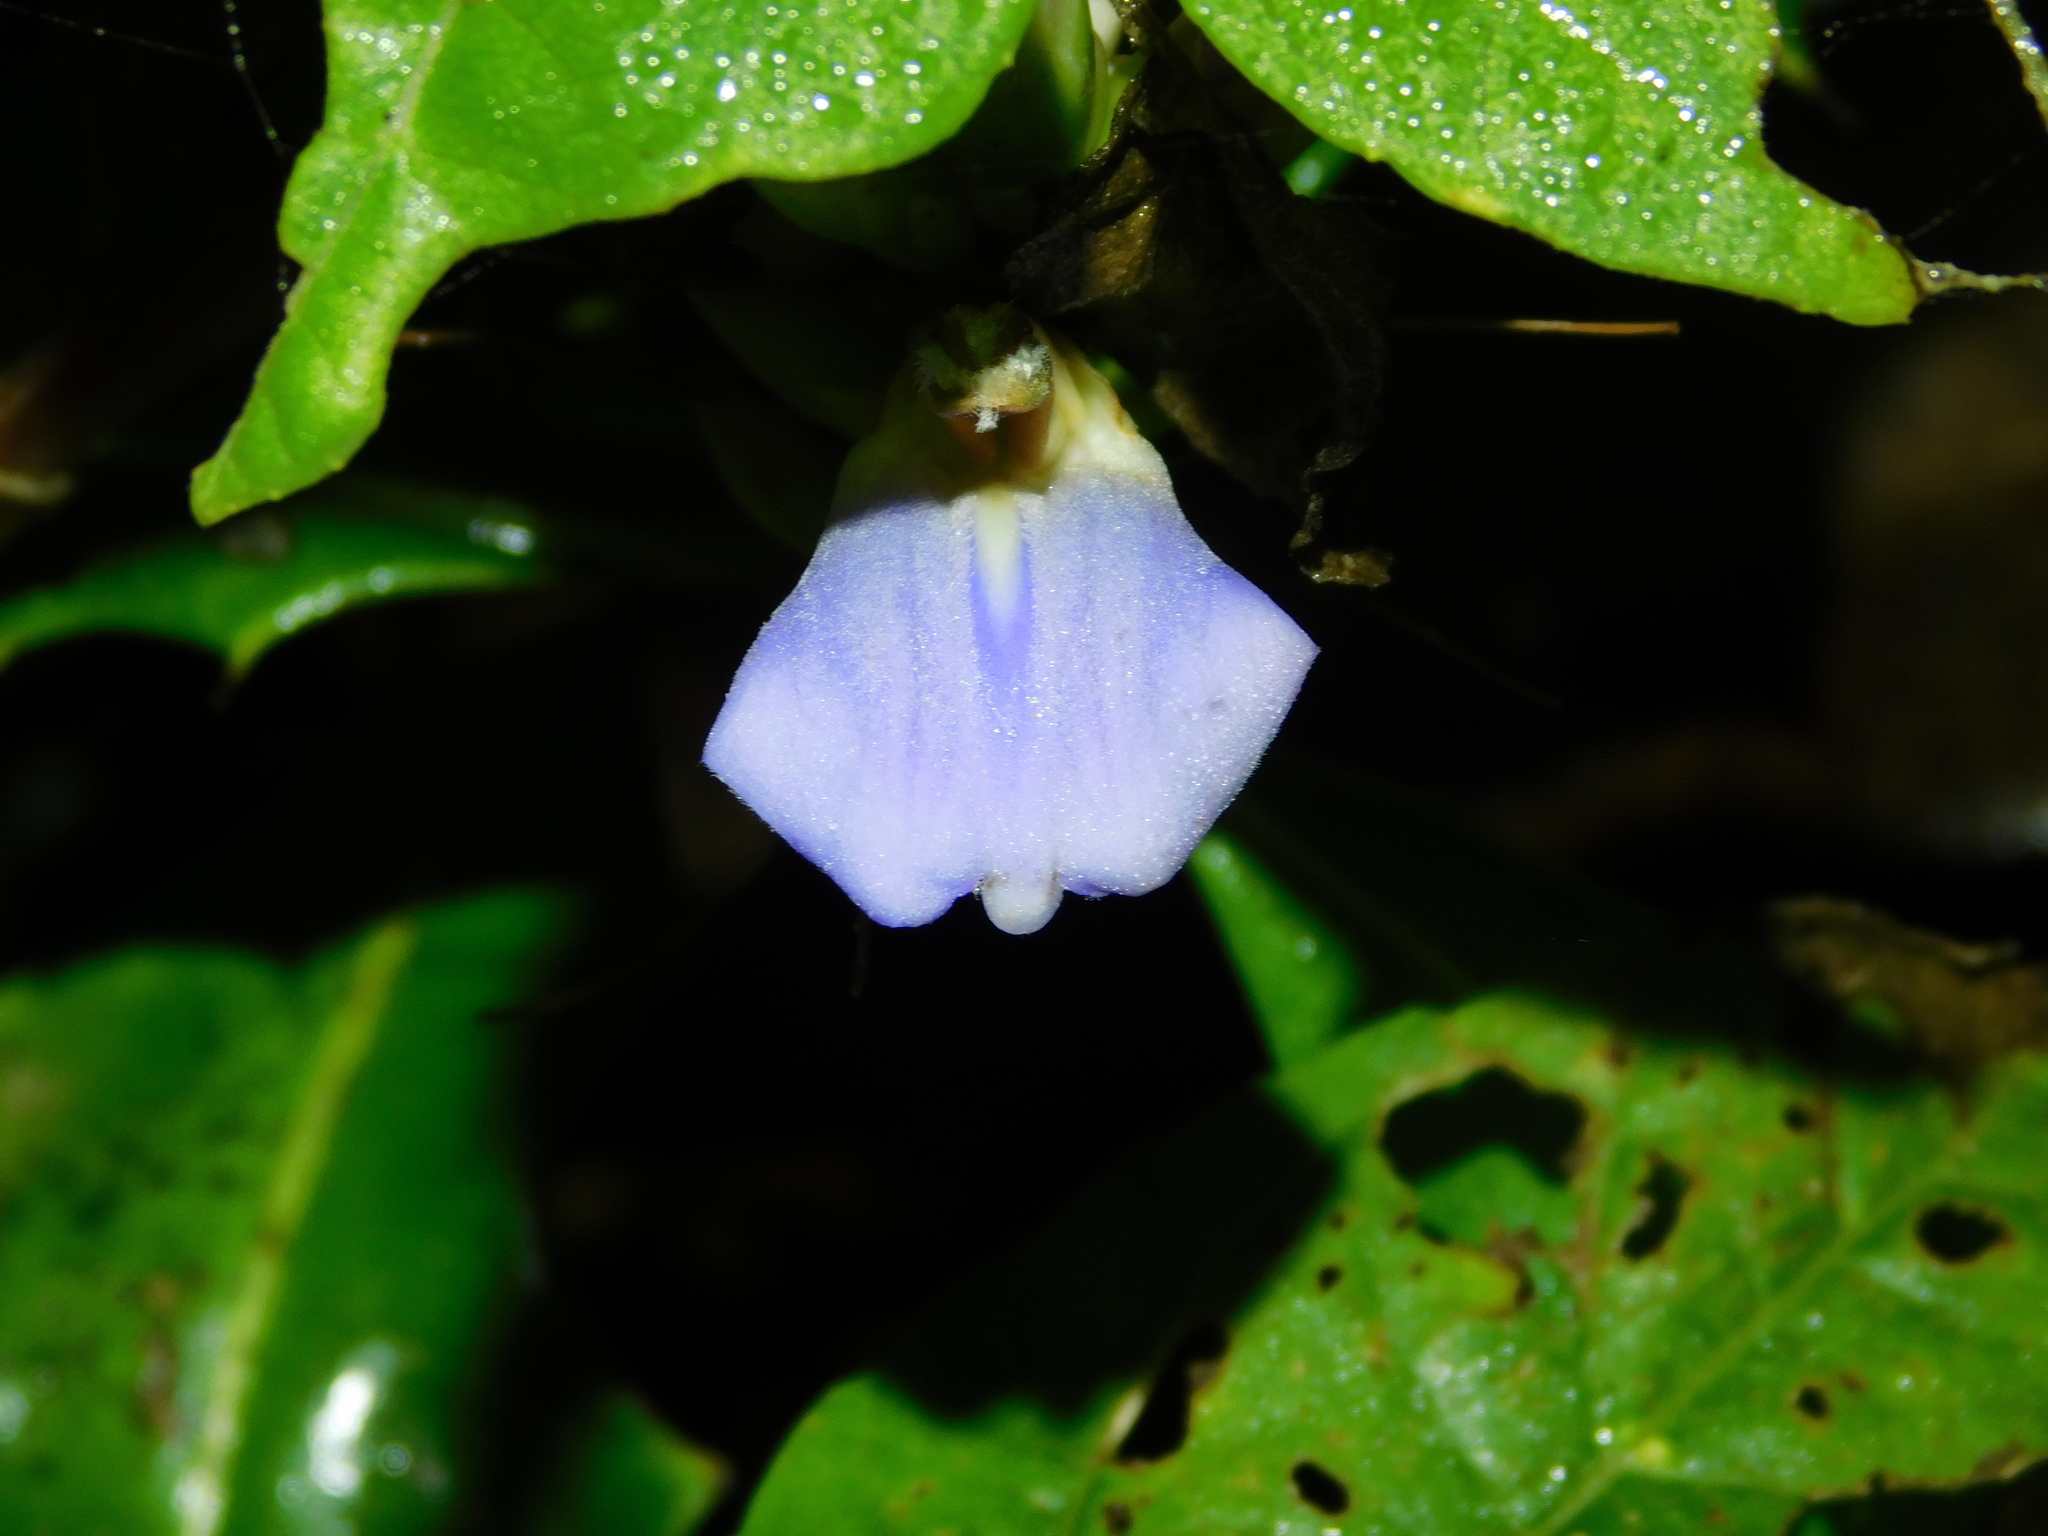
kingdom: Plantae
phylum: Tracheophyta
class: Magnoliopsida
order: Lamiales
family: Acanthaceae
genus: Acanthus
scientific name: Acanthus ilicifolius
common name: Holy mangrove
